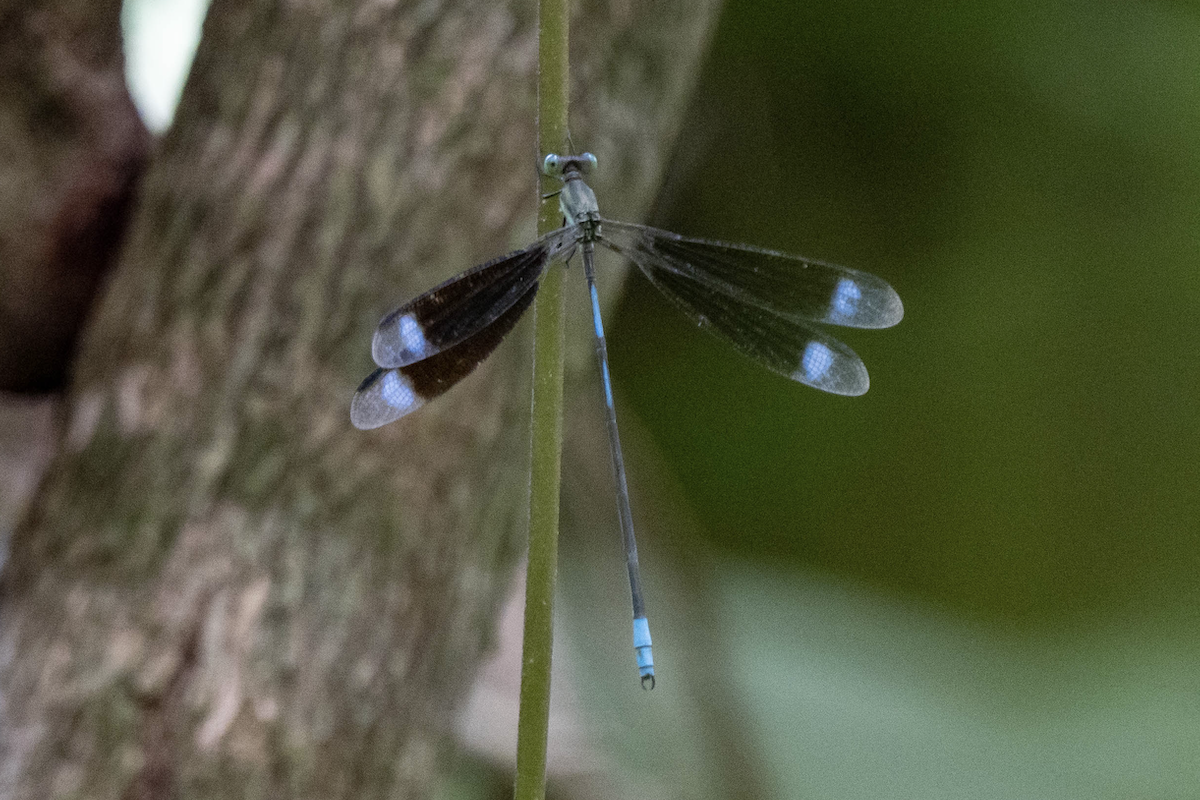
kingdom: Animalia
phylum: Arthropoda
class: Insecta
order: Odonata
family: Lestidae
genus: Orolestes
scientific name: Orolestes selysi
